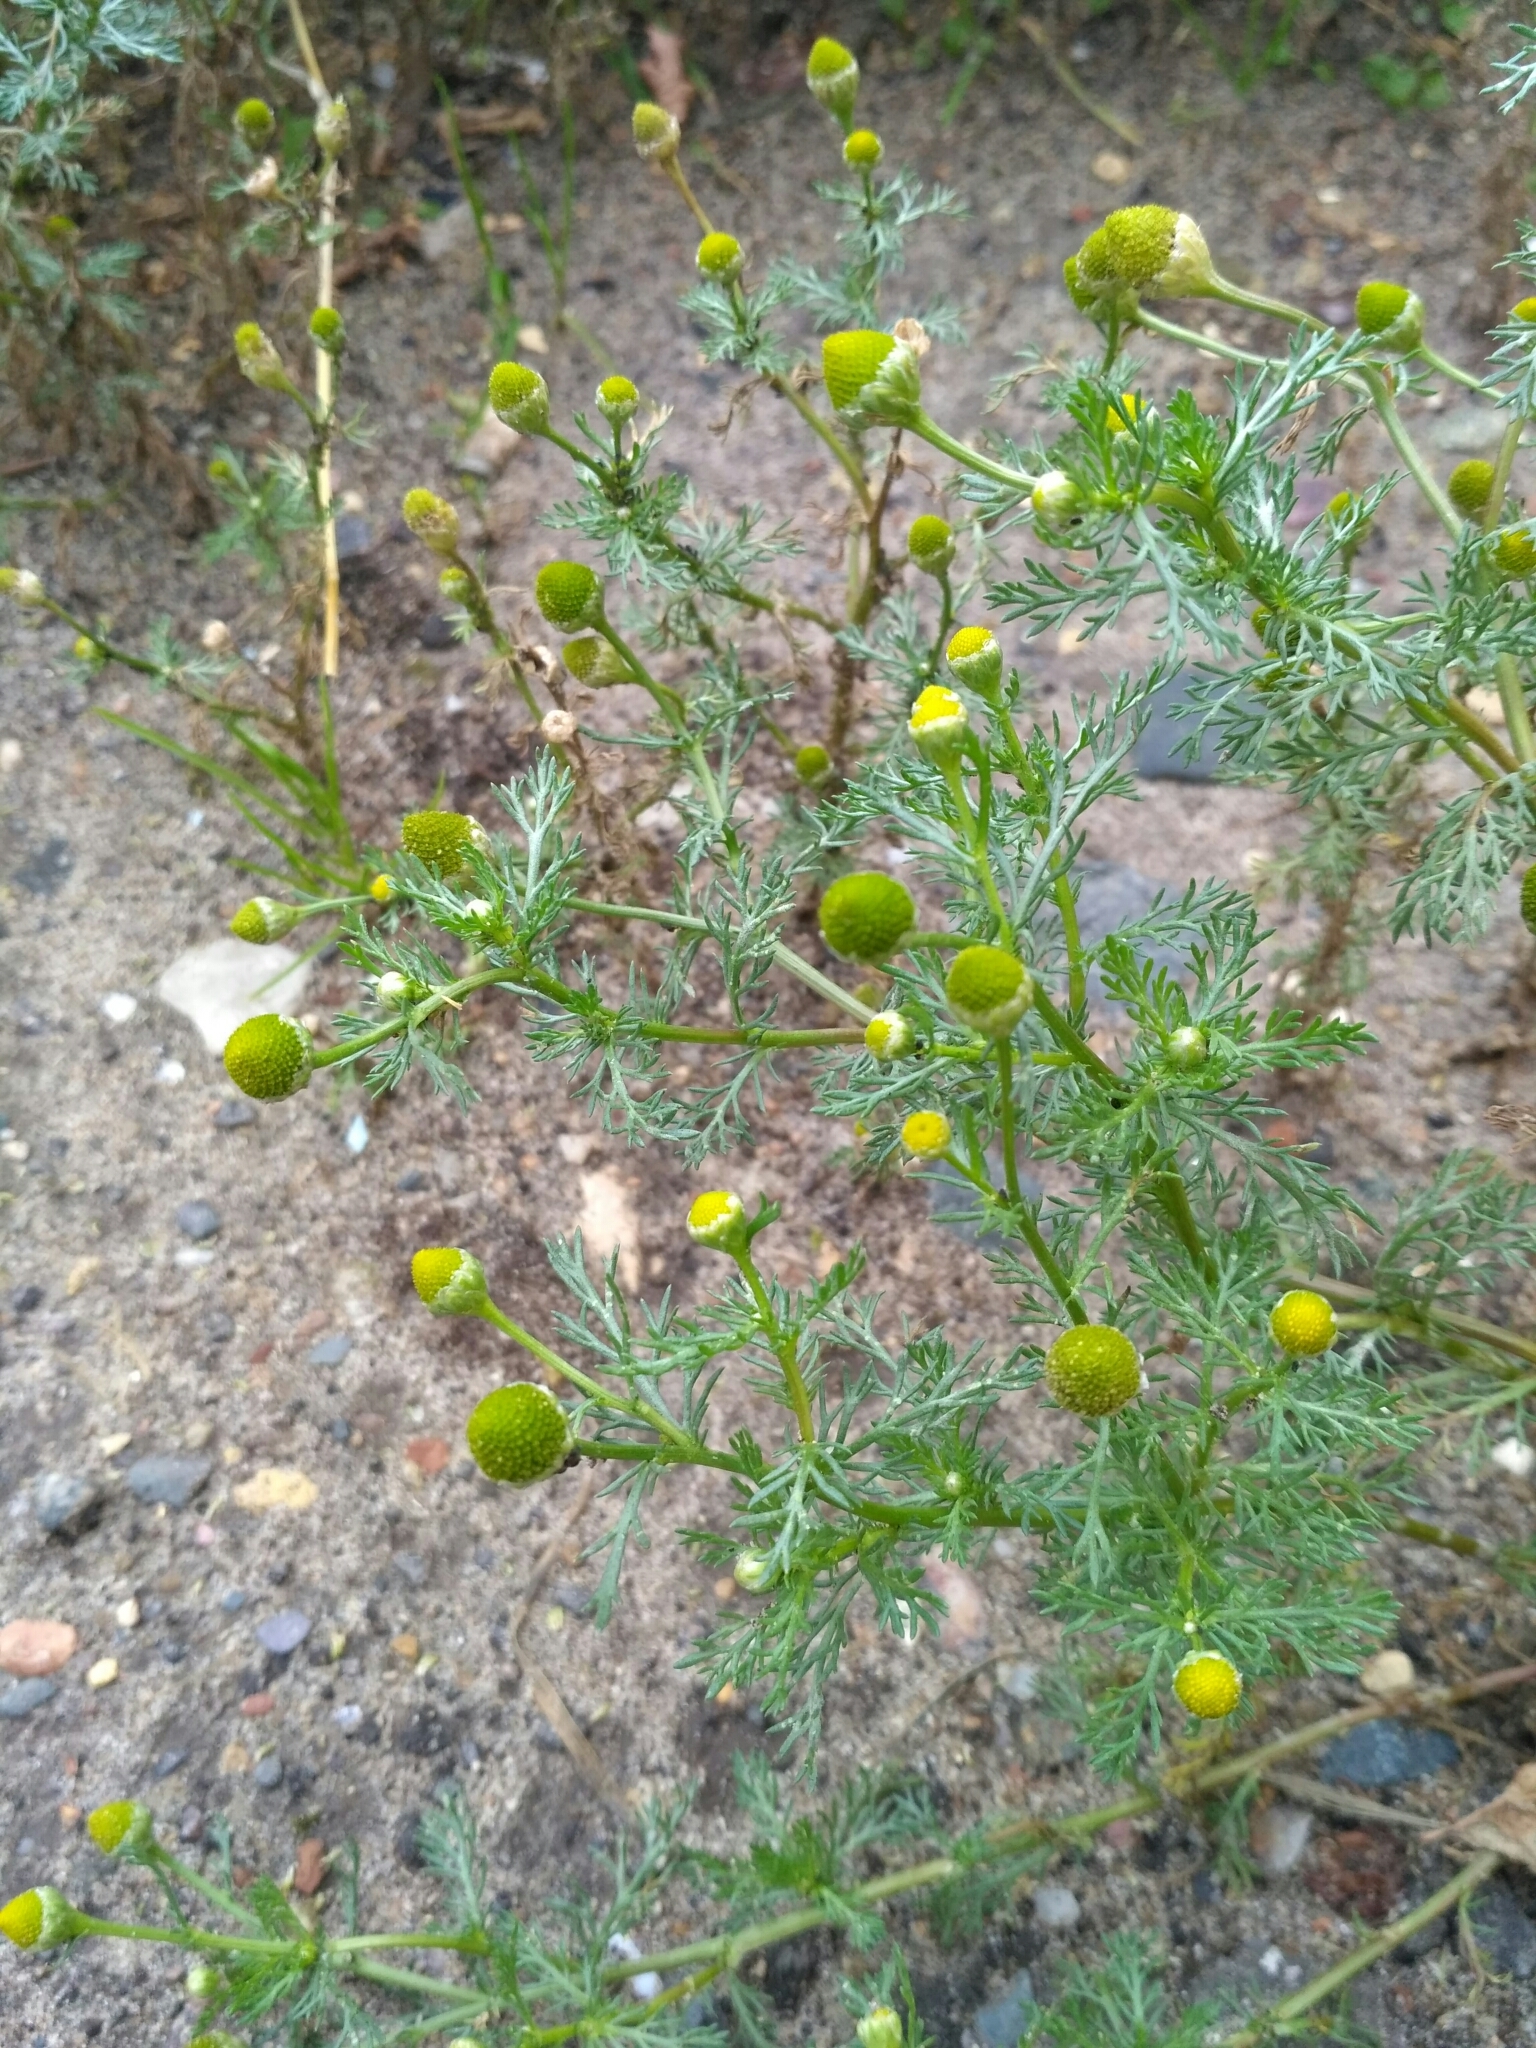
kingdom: Plantae
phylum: Tracheophyta
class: Magnoliopsida
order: Asterales
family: Asteraceae
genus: Matricaria
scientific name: Matricaria discoidea
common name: Disc mayweed
